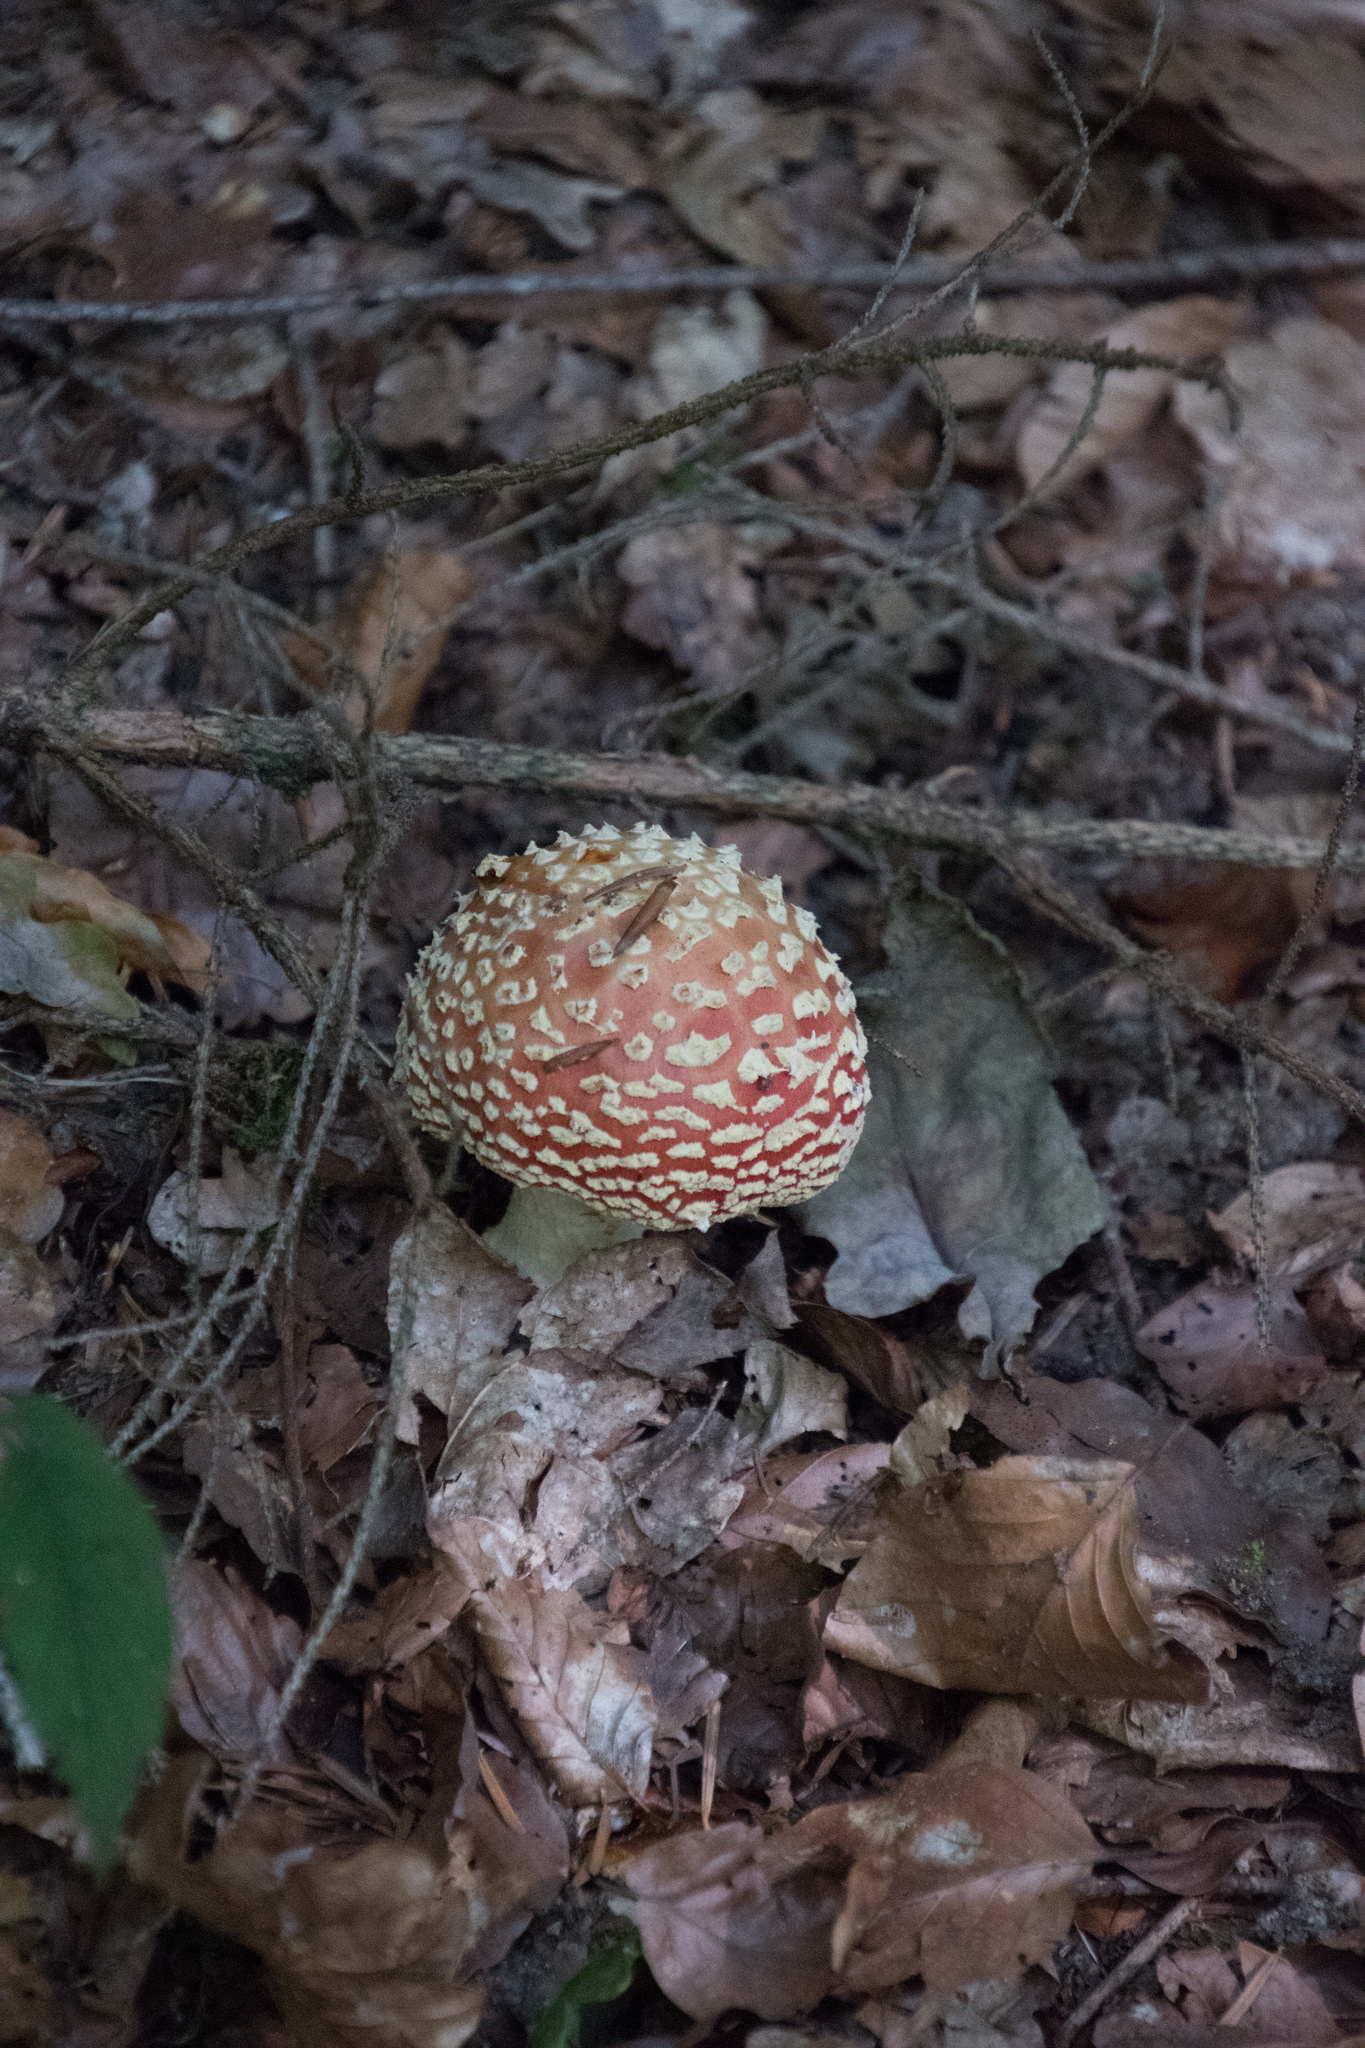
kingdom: Fungi
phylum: Basidiomycota
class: Agaricomycetes
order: Agaricales
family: Amanitaceae
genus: Amanita
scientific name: Amanita muscaria
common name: Fly agaric
